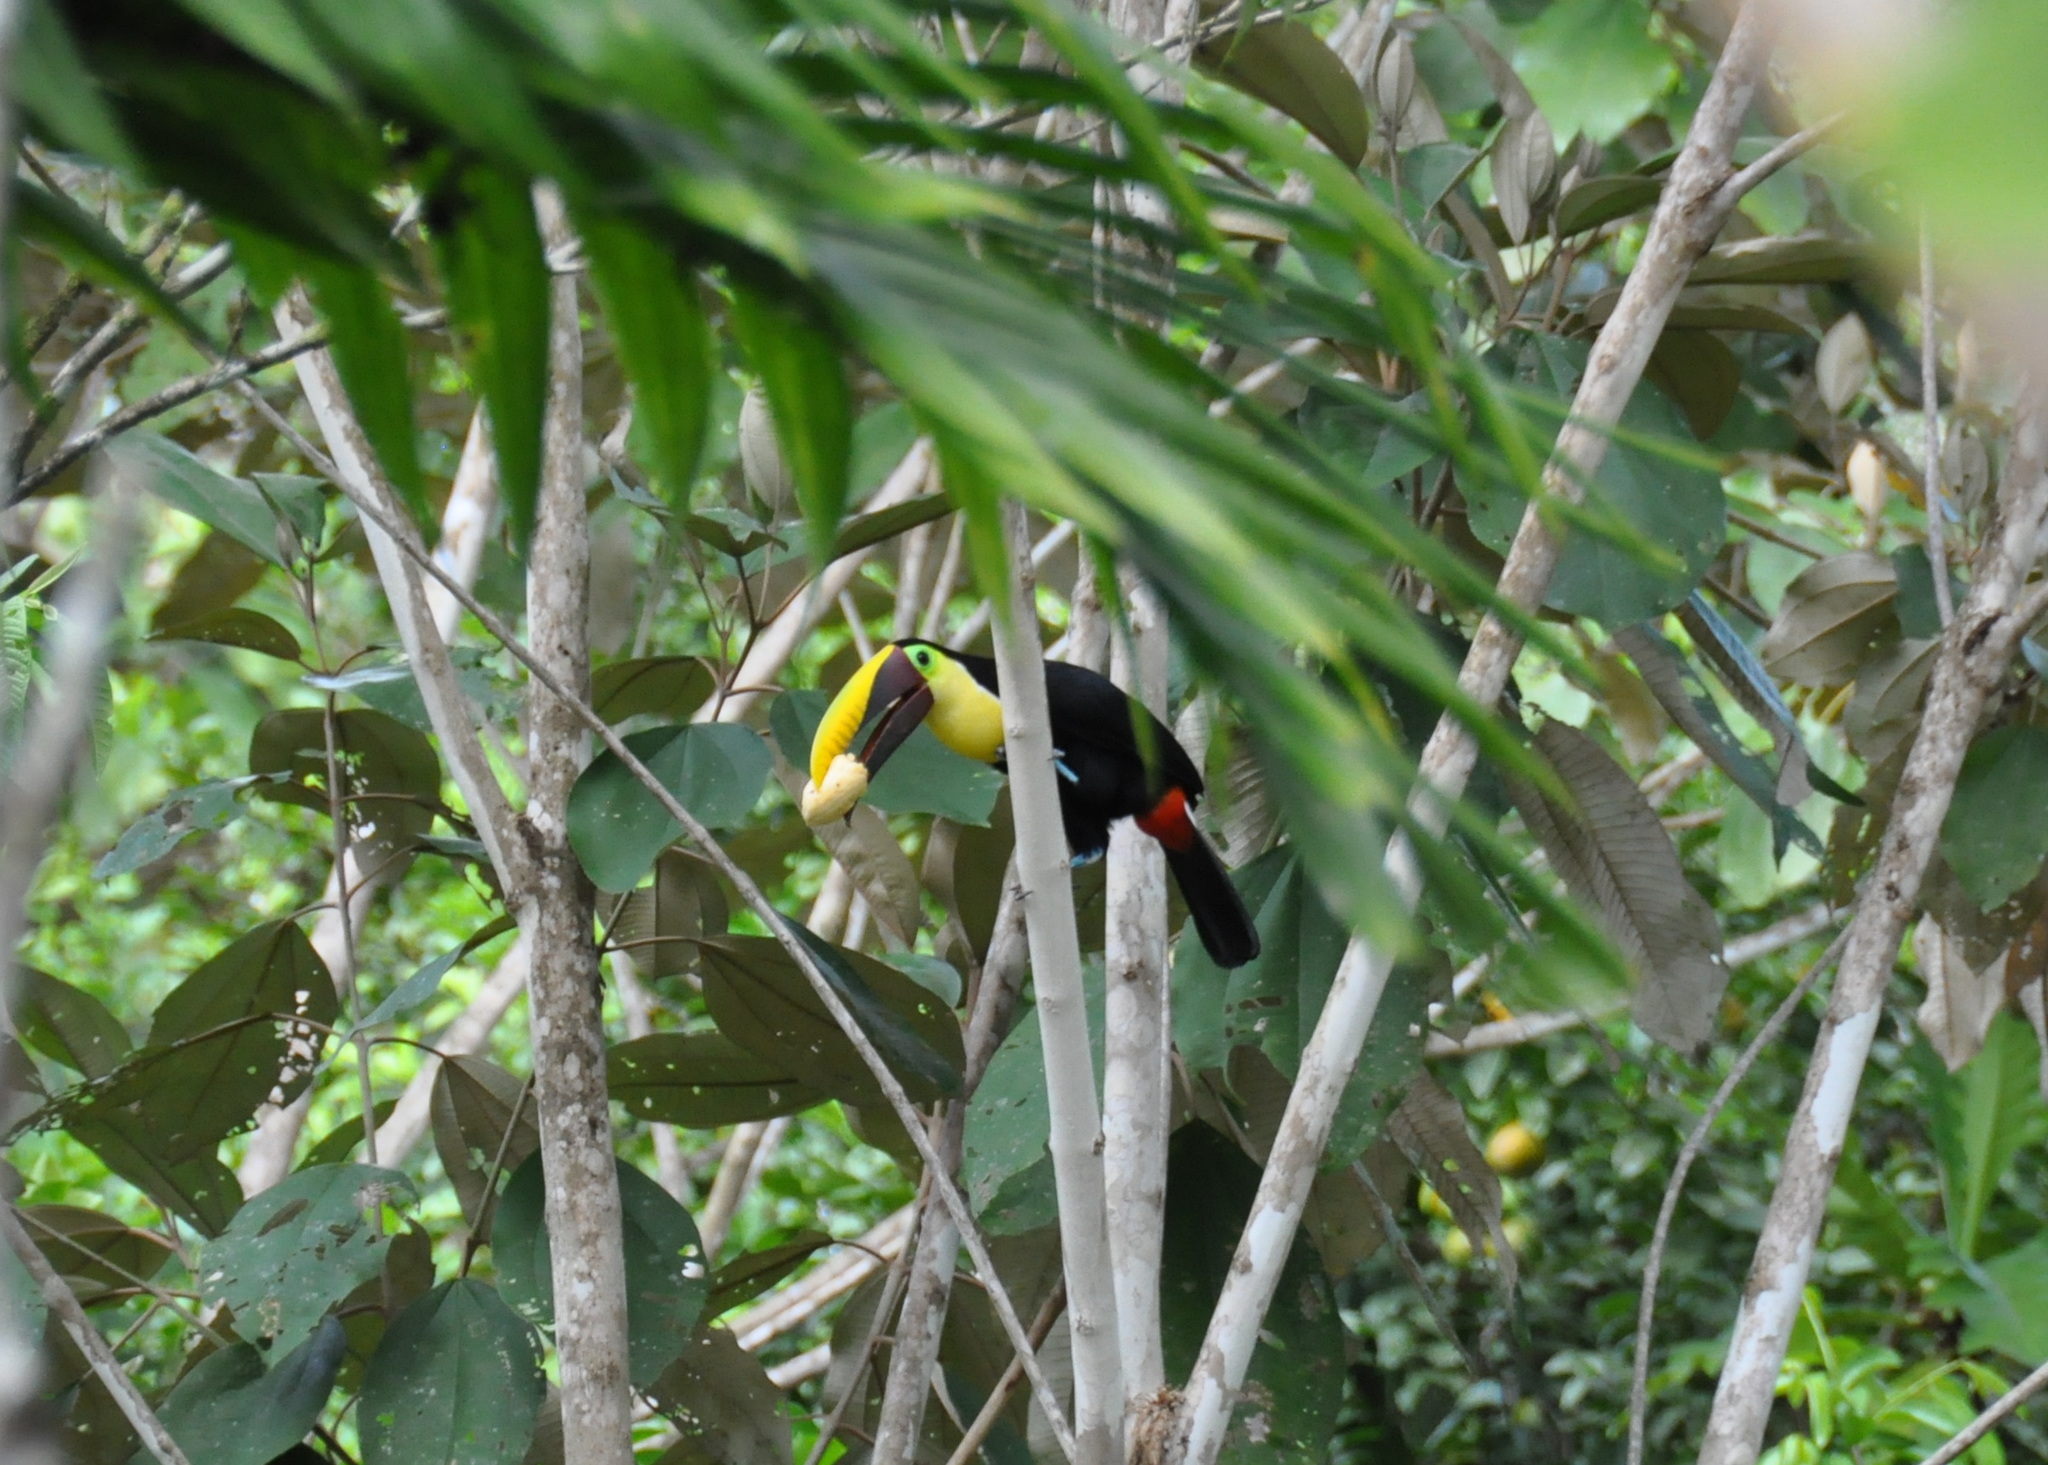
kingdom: Animalia
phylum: Chordata
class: Aves
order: Piciformes
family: Ramphastidae
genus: Ramphastos
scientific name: Ramphastos ambiguus
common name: Yellow-throated toucan
